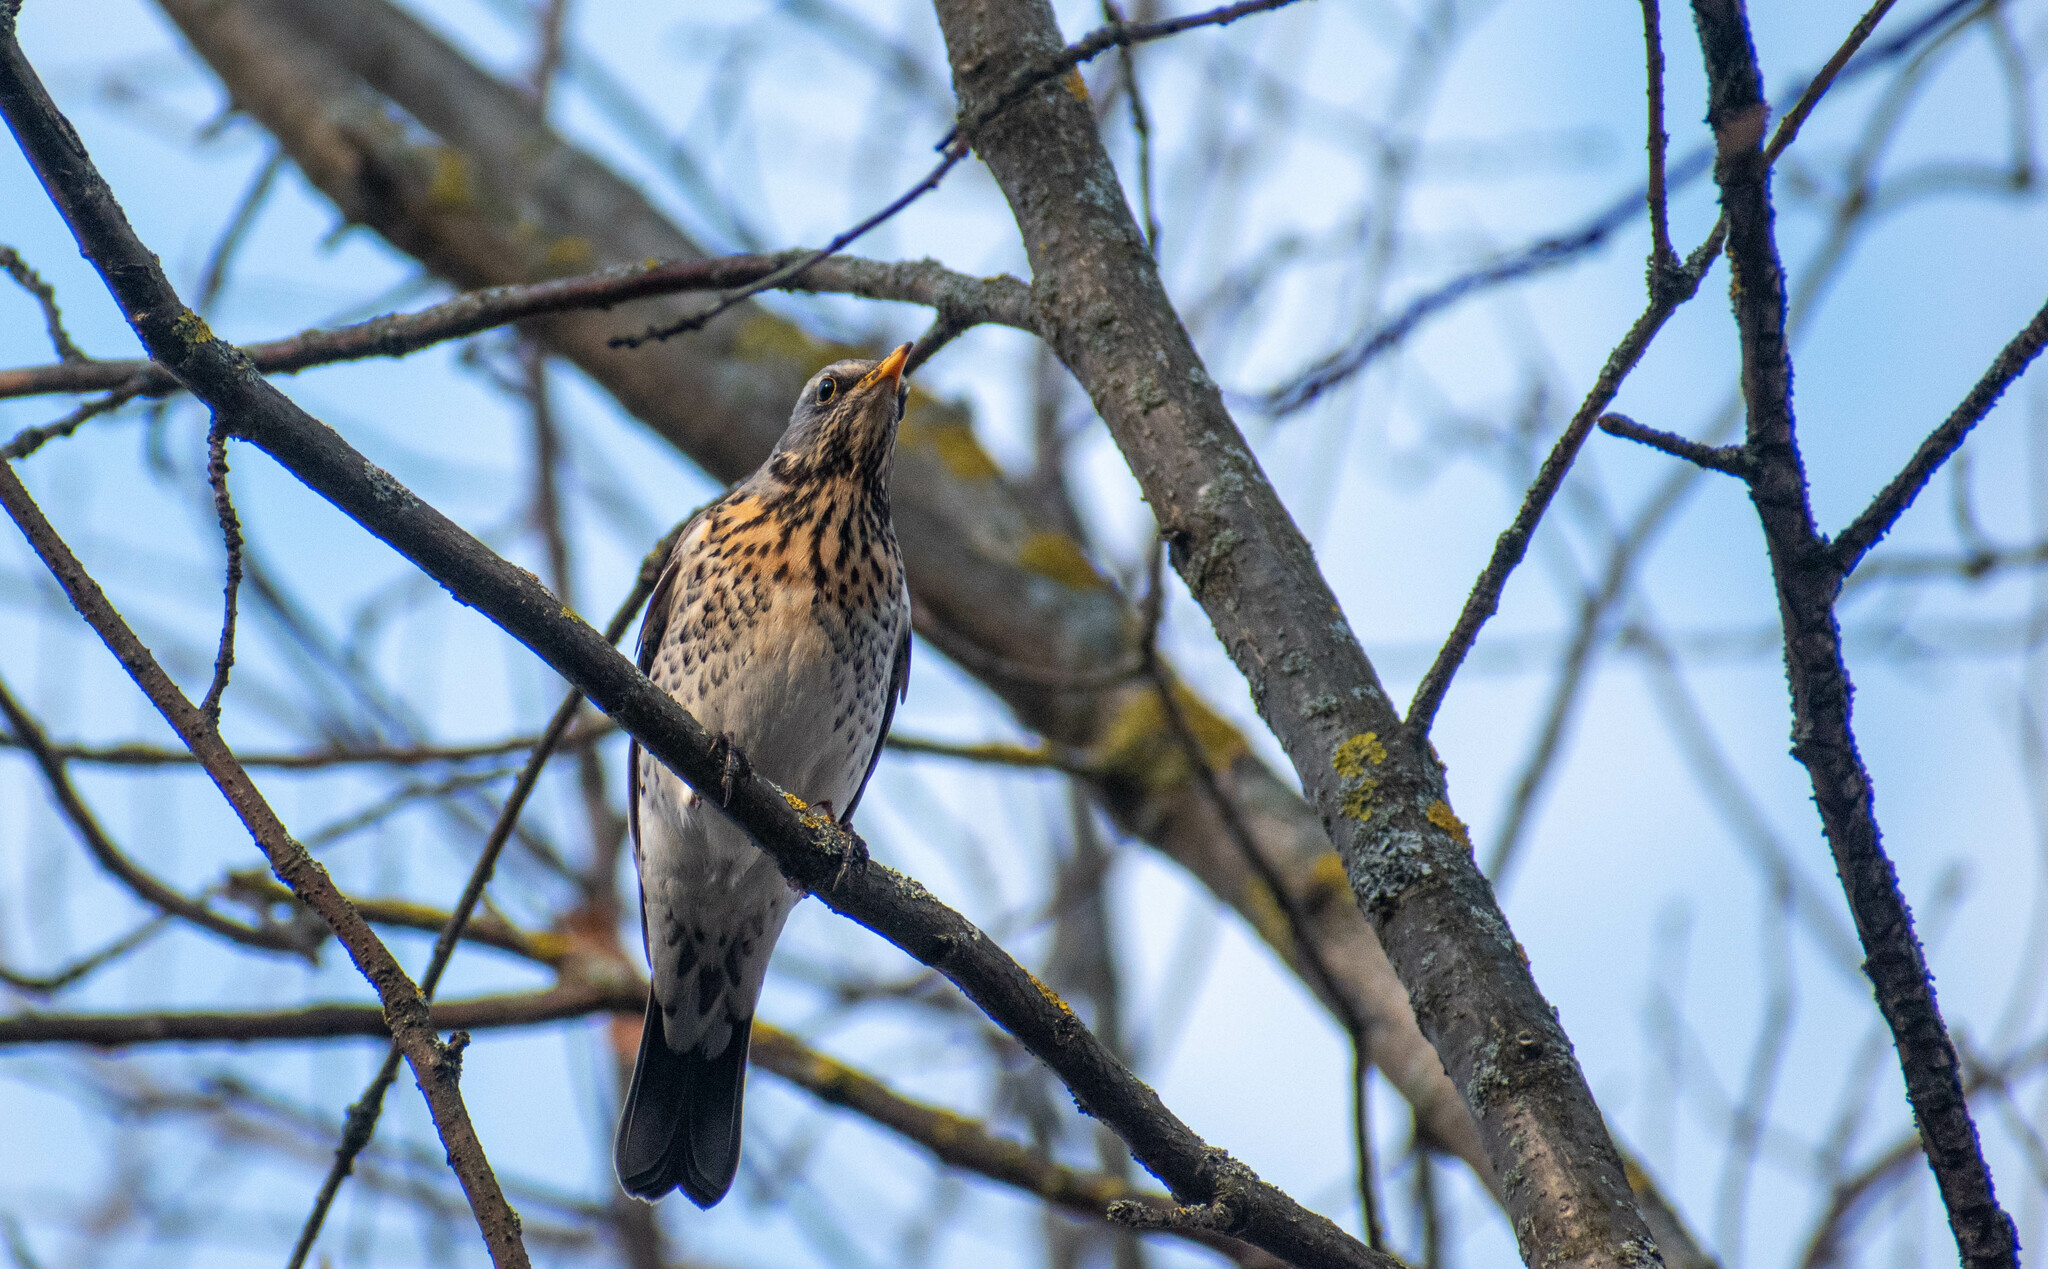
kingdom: Animalia
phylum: Chordata
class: Aves
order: Passeriformes
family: Turdidae
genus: Turdus
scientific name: Turdus pilaris
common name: Fieldfare
